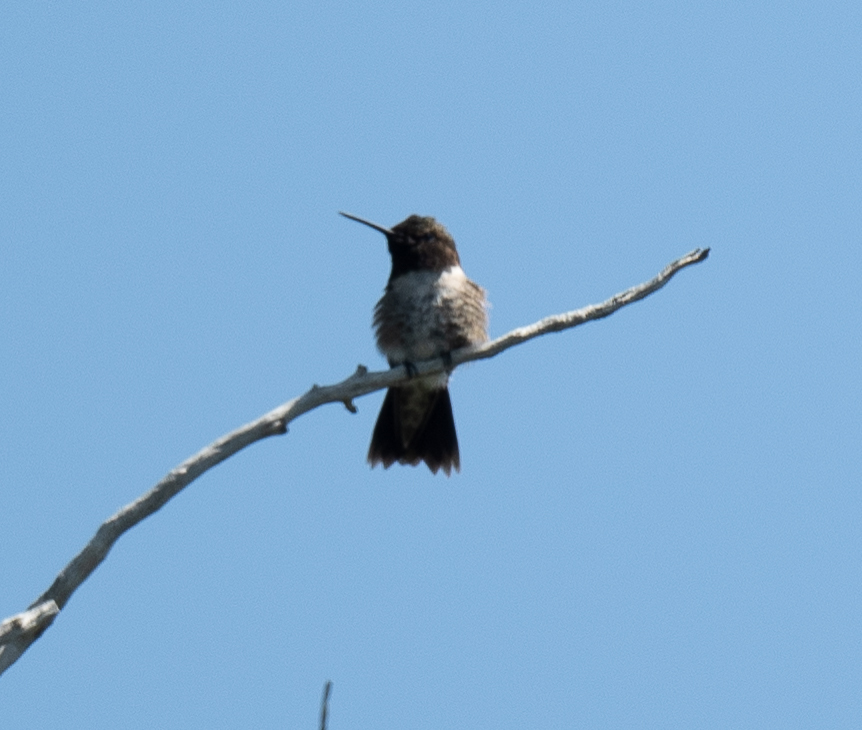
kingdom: Animalia
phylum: Chordata
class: Aves
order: Apodiformes
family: Trochilidae
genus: Archilochus
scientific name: Archilochus alexandri
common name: Black-chinned hummingbird
